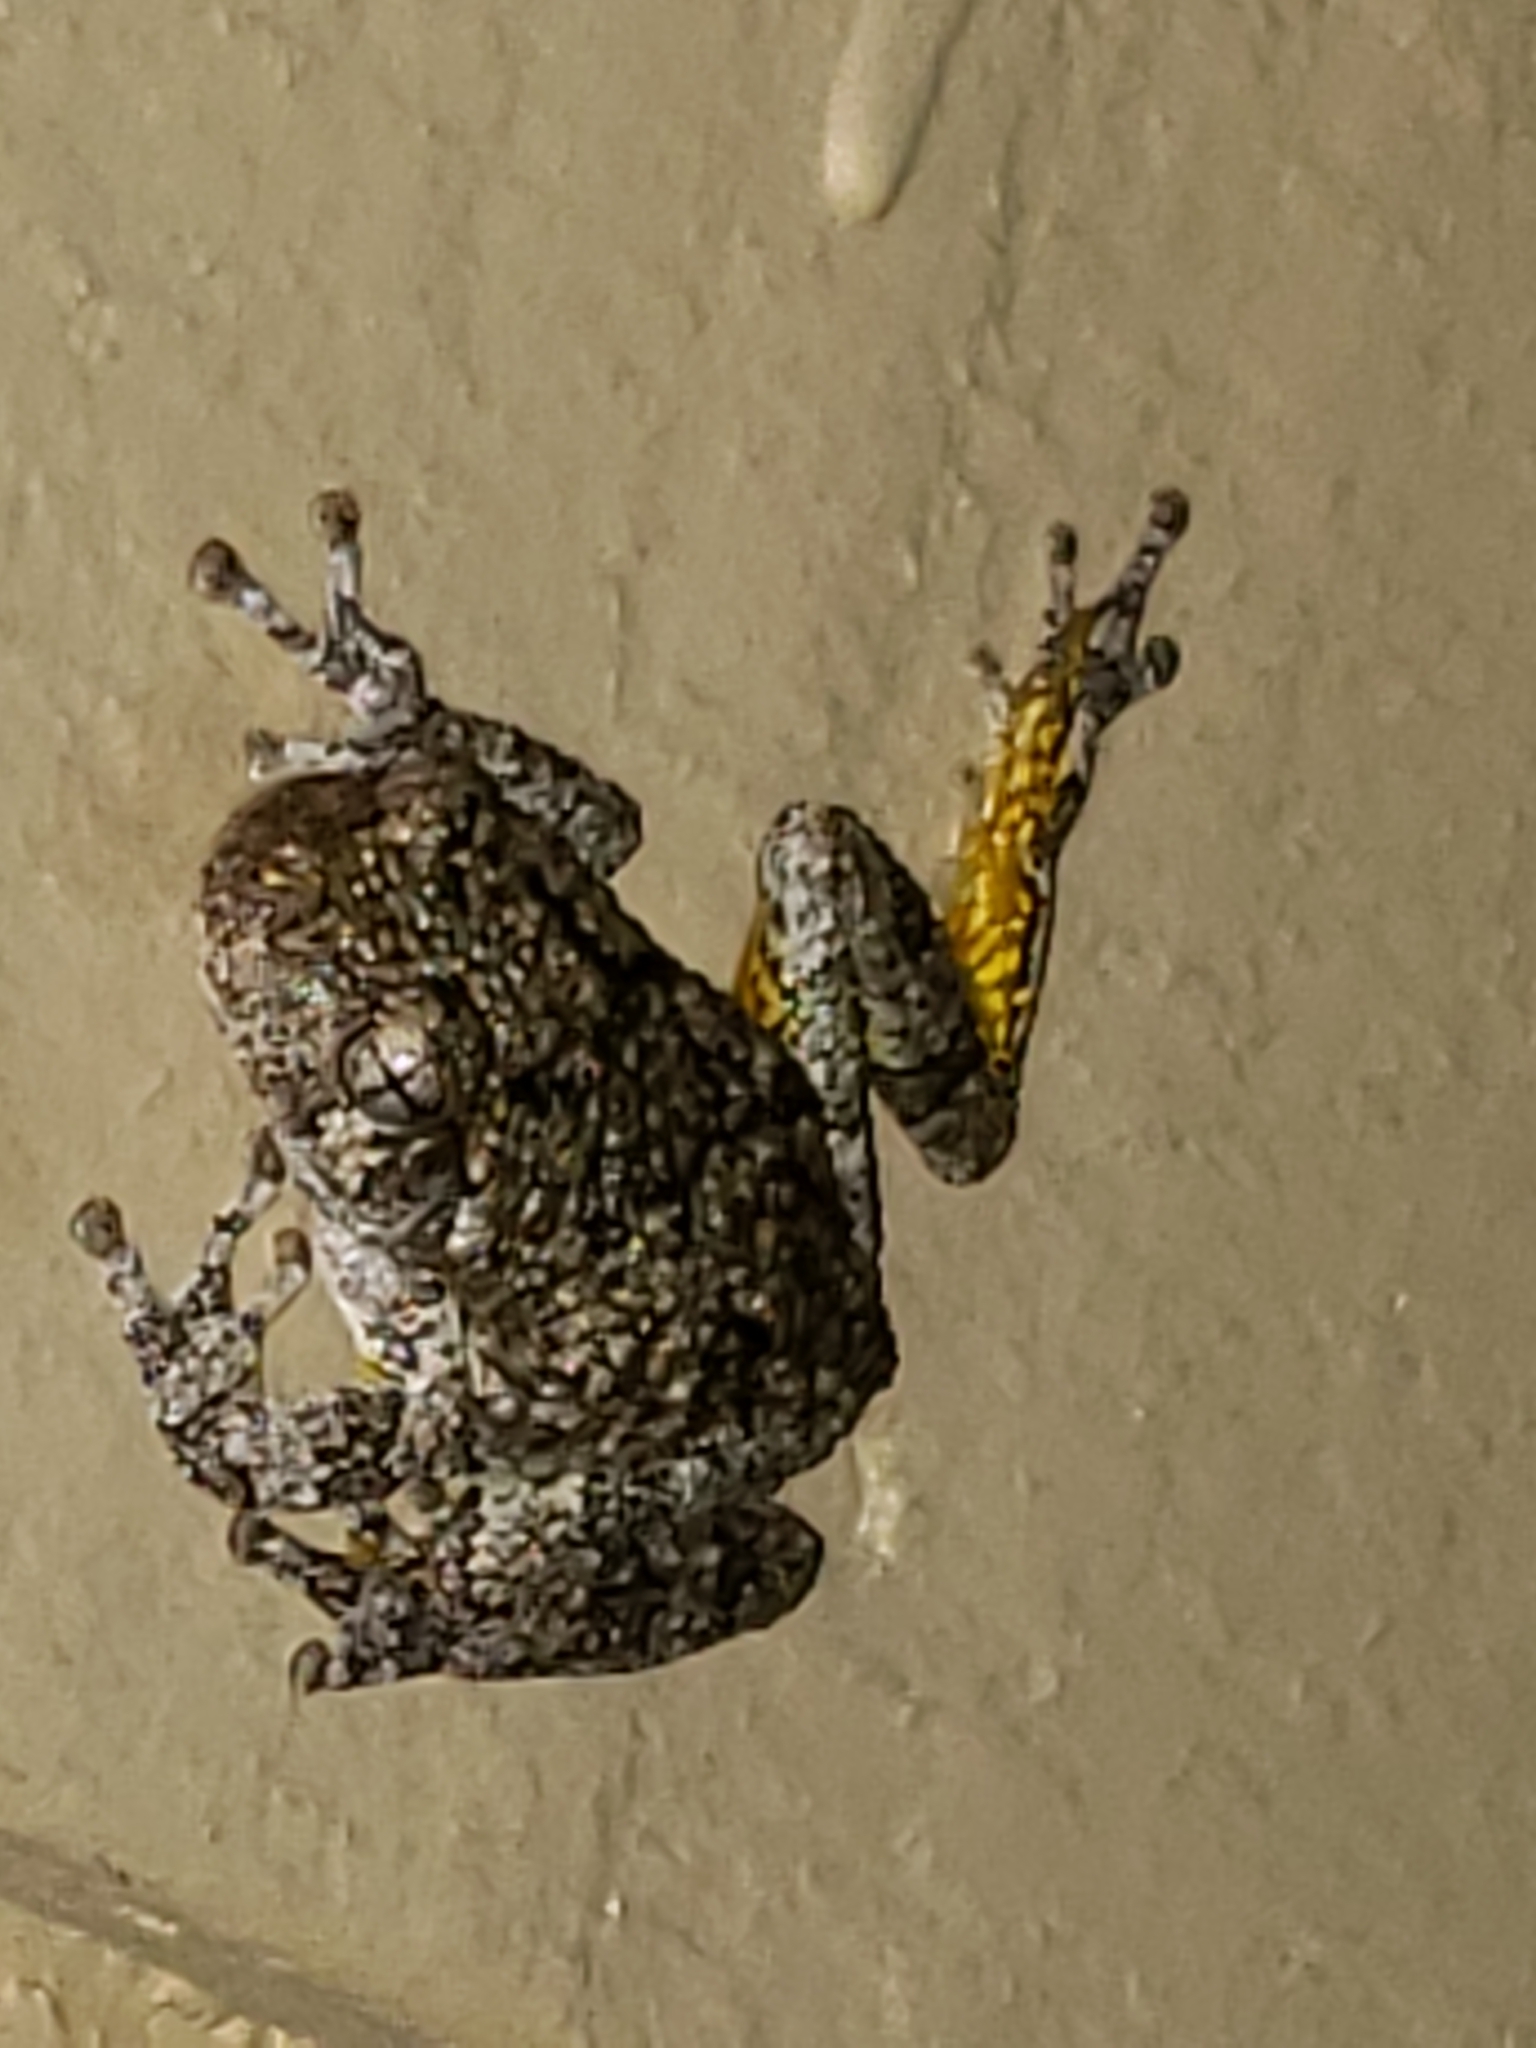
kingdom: Animalia
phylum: Chordata
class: Amphibia
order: Anura
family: Hylidae
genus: Hyla
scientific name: Hyla
